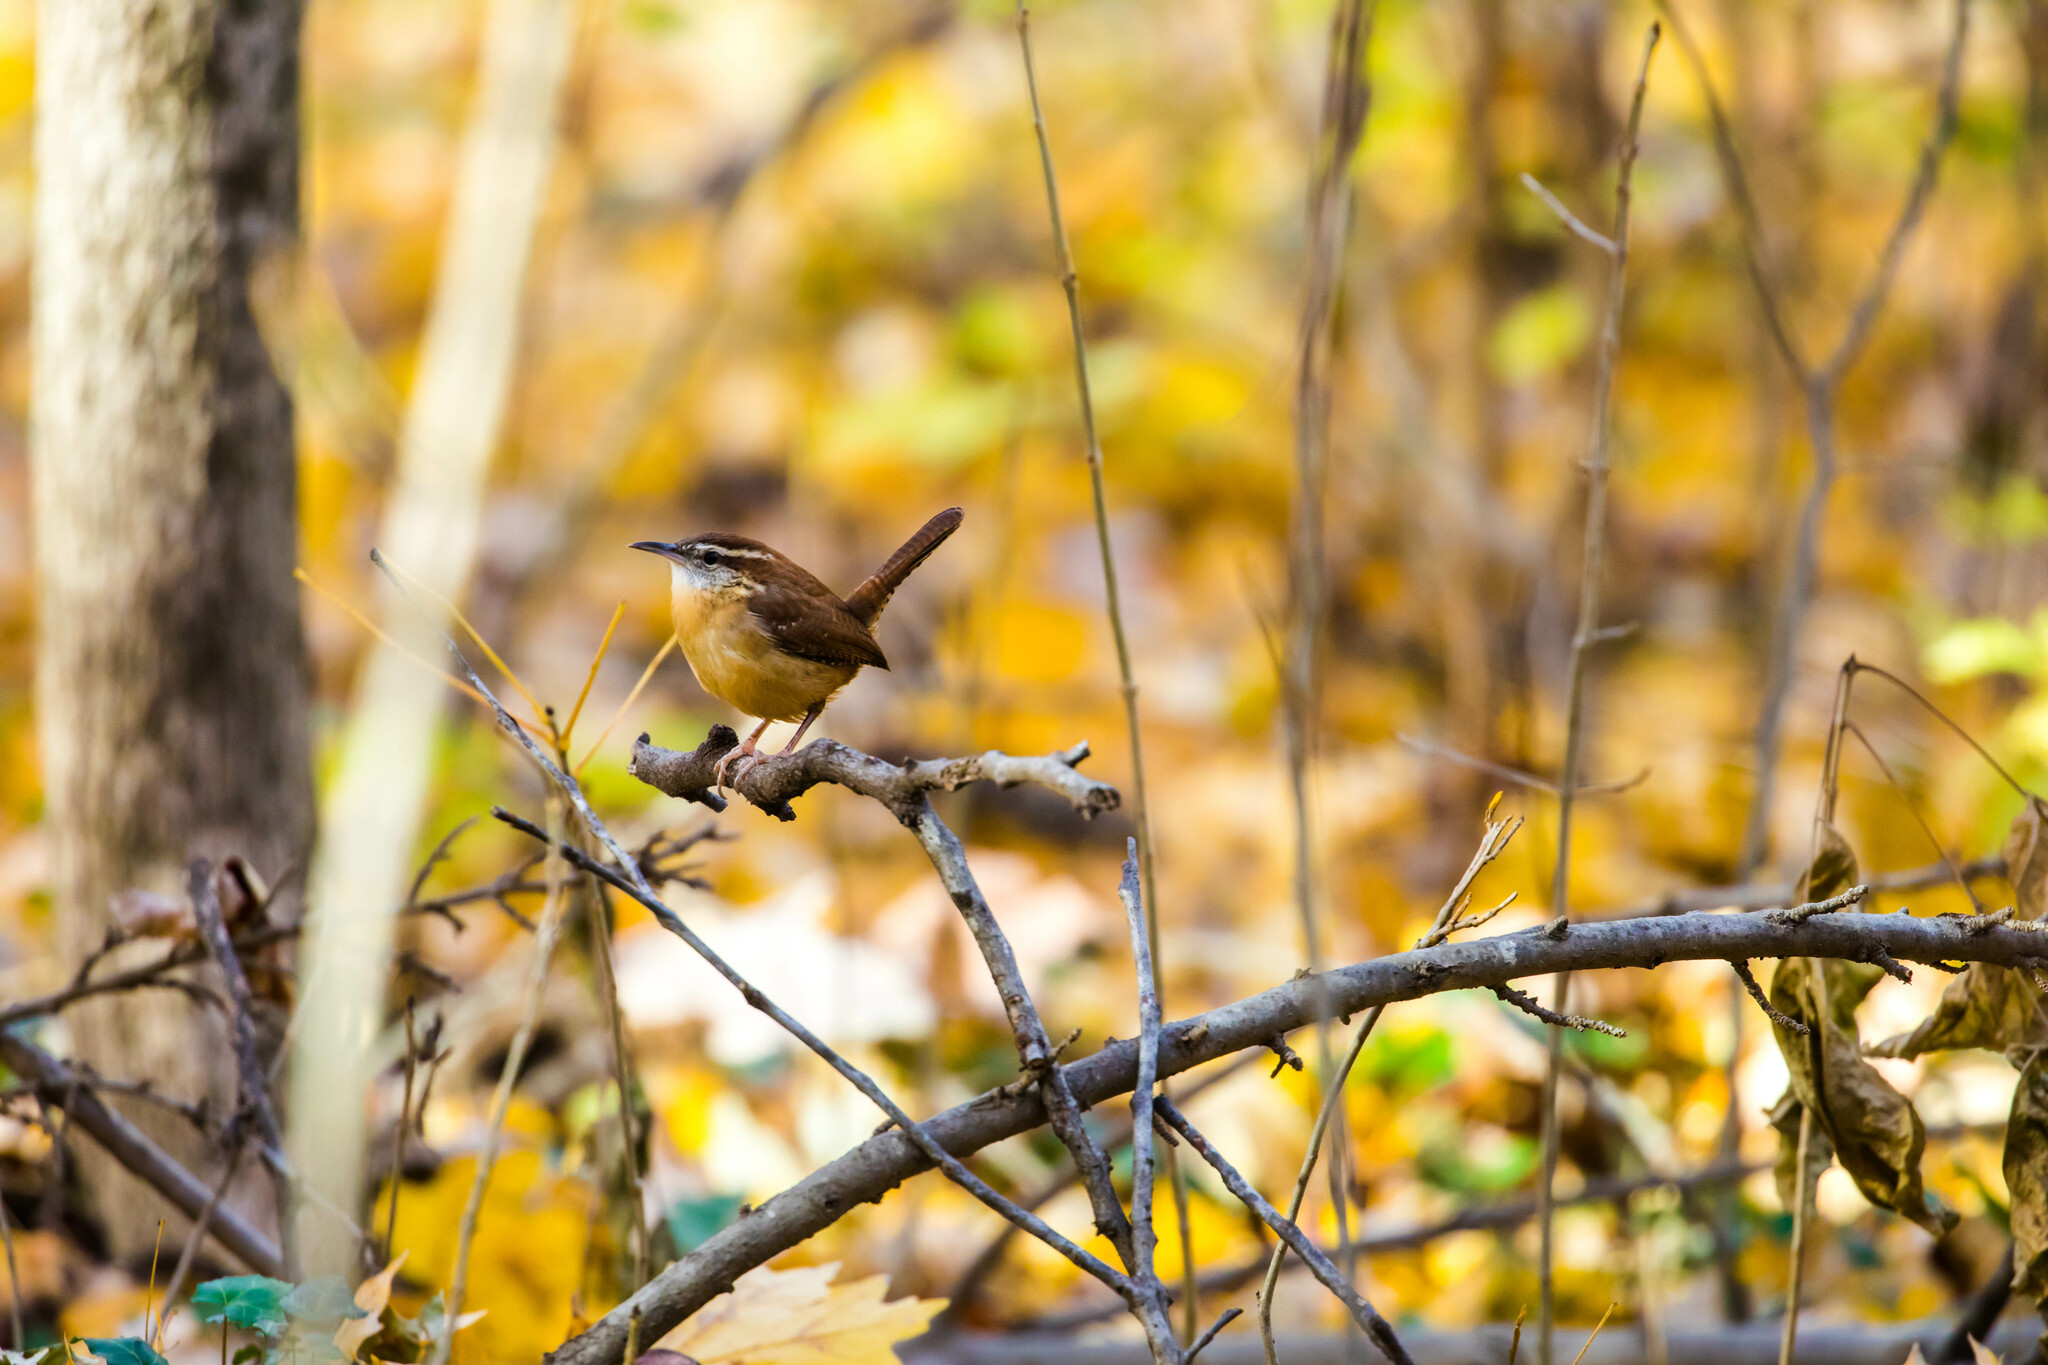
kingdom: Animalia
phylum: Chordata
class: Aves
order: Passeriformes
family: Troglodytidae
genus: Thryothorus
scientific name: Thryothorus ludovicianus
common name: Carolina wren
